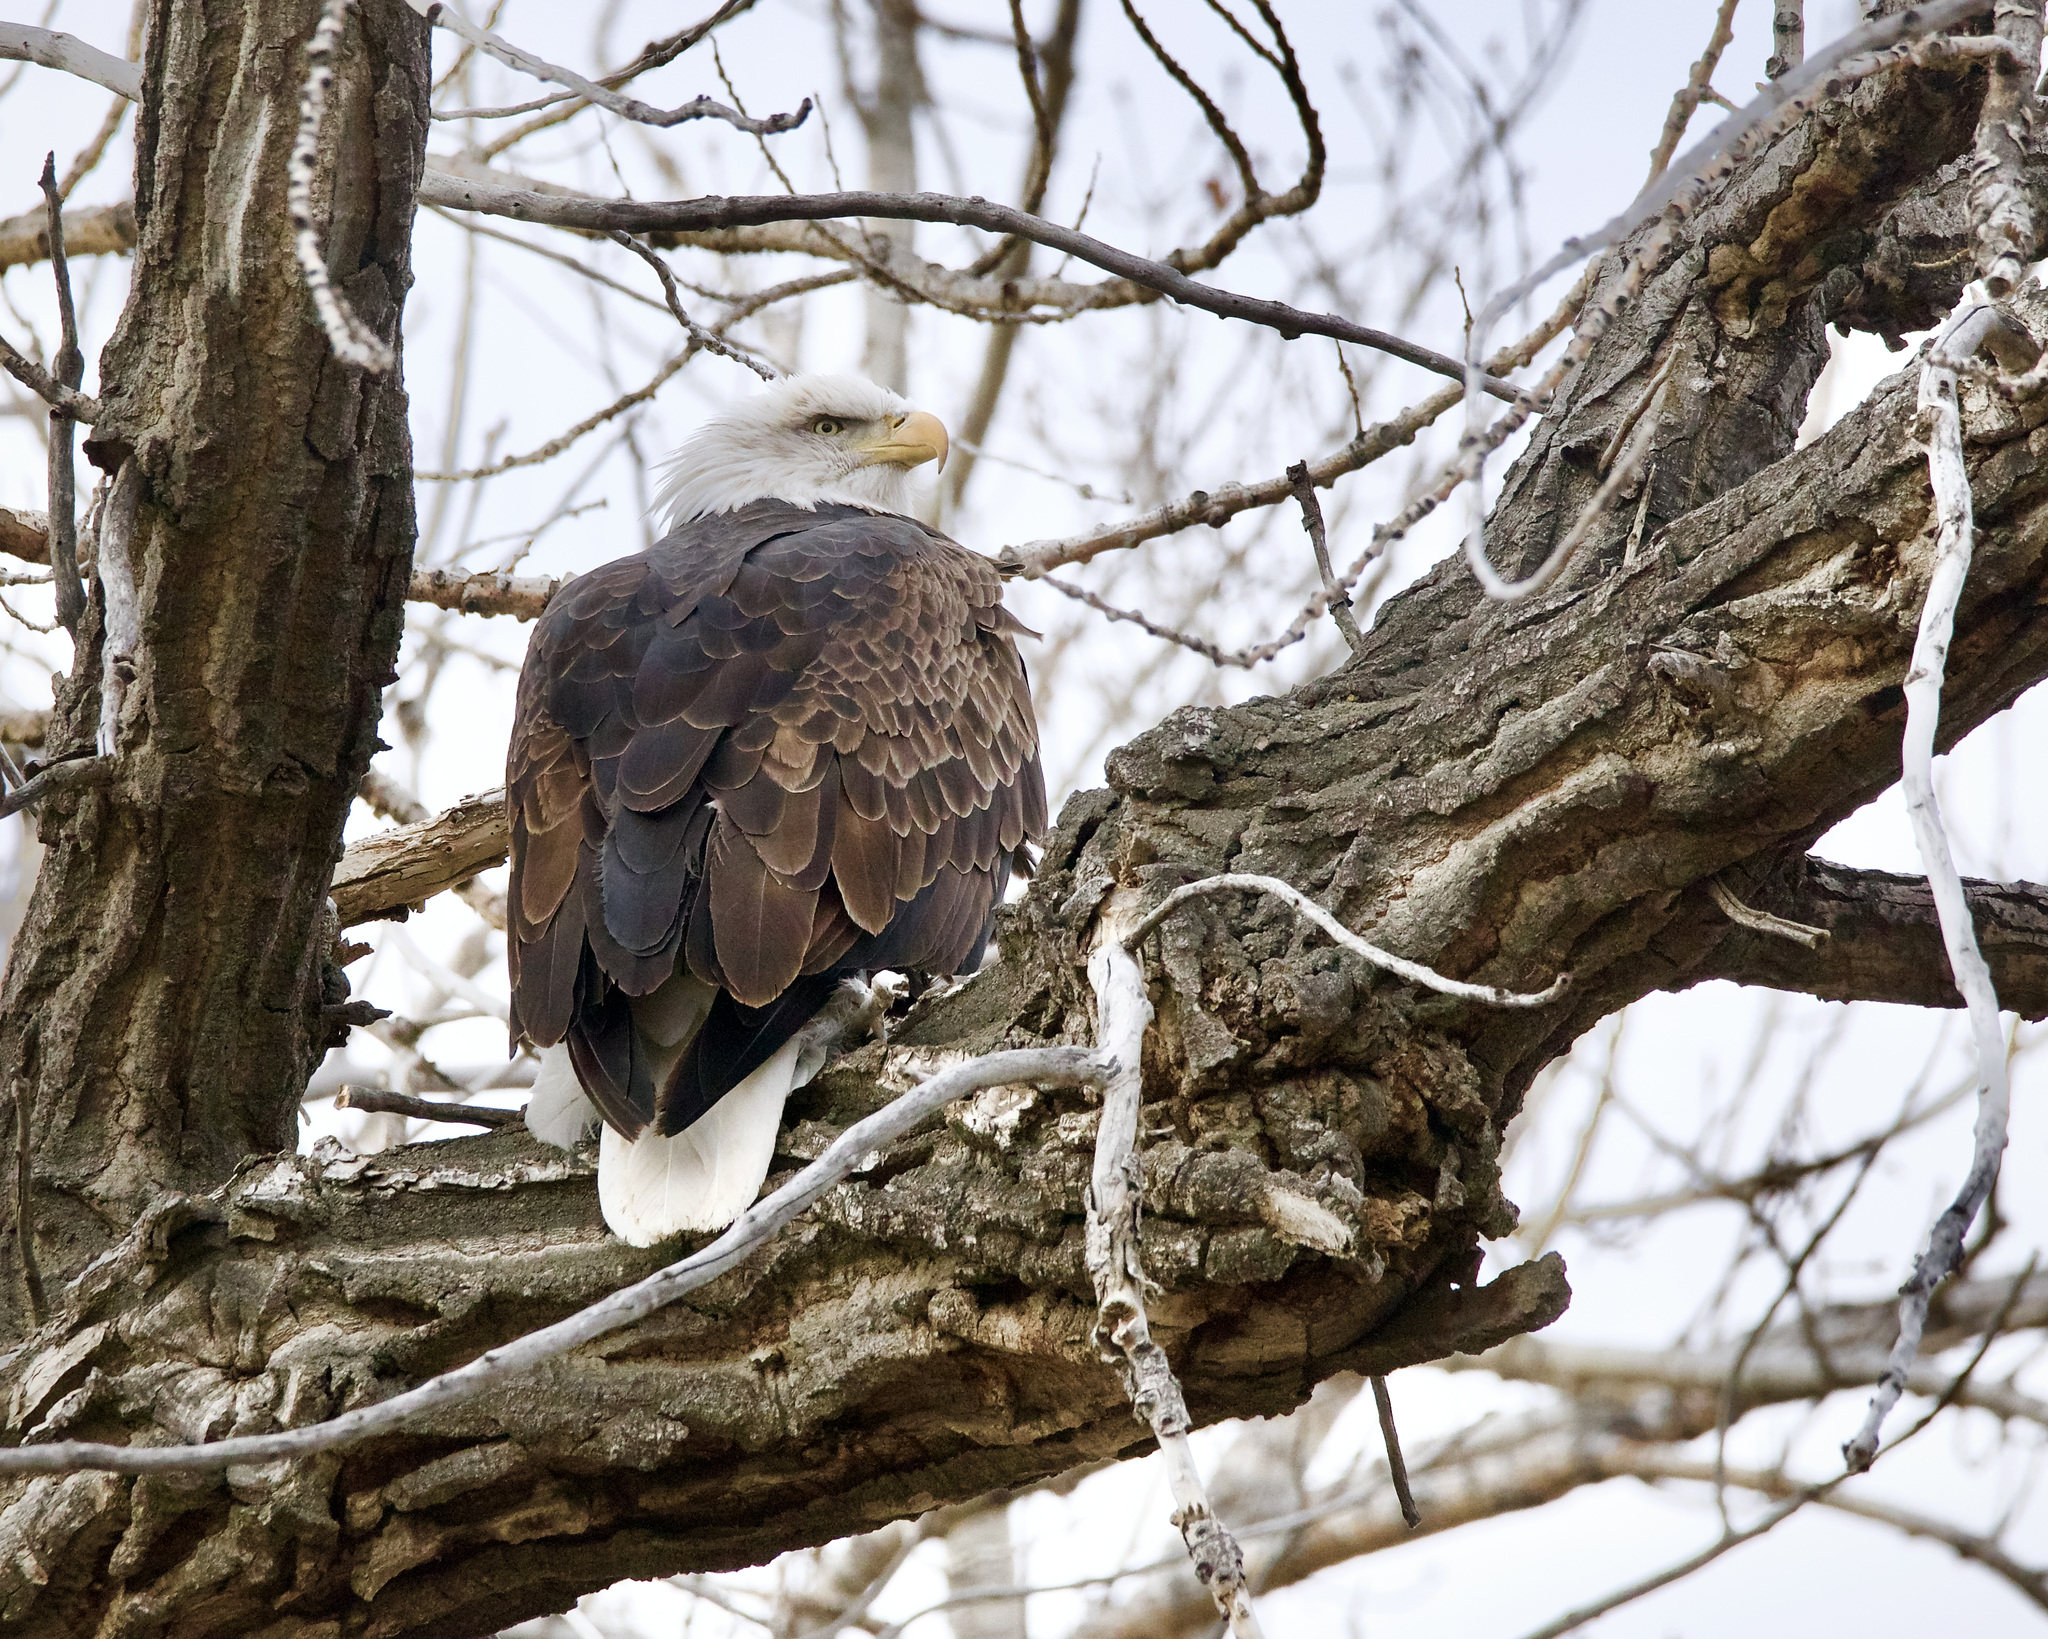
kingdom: Animalia
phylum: Chordata
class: Aves
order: Accipitriformes
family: Accipitridae
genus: Haliaeetus
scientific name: Haliaeetus leucocephalus
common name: Bald eagle
